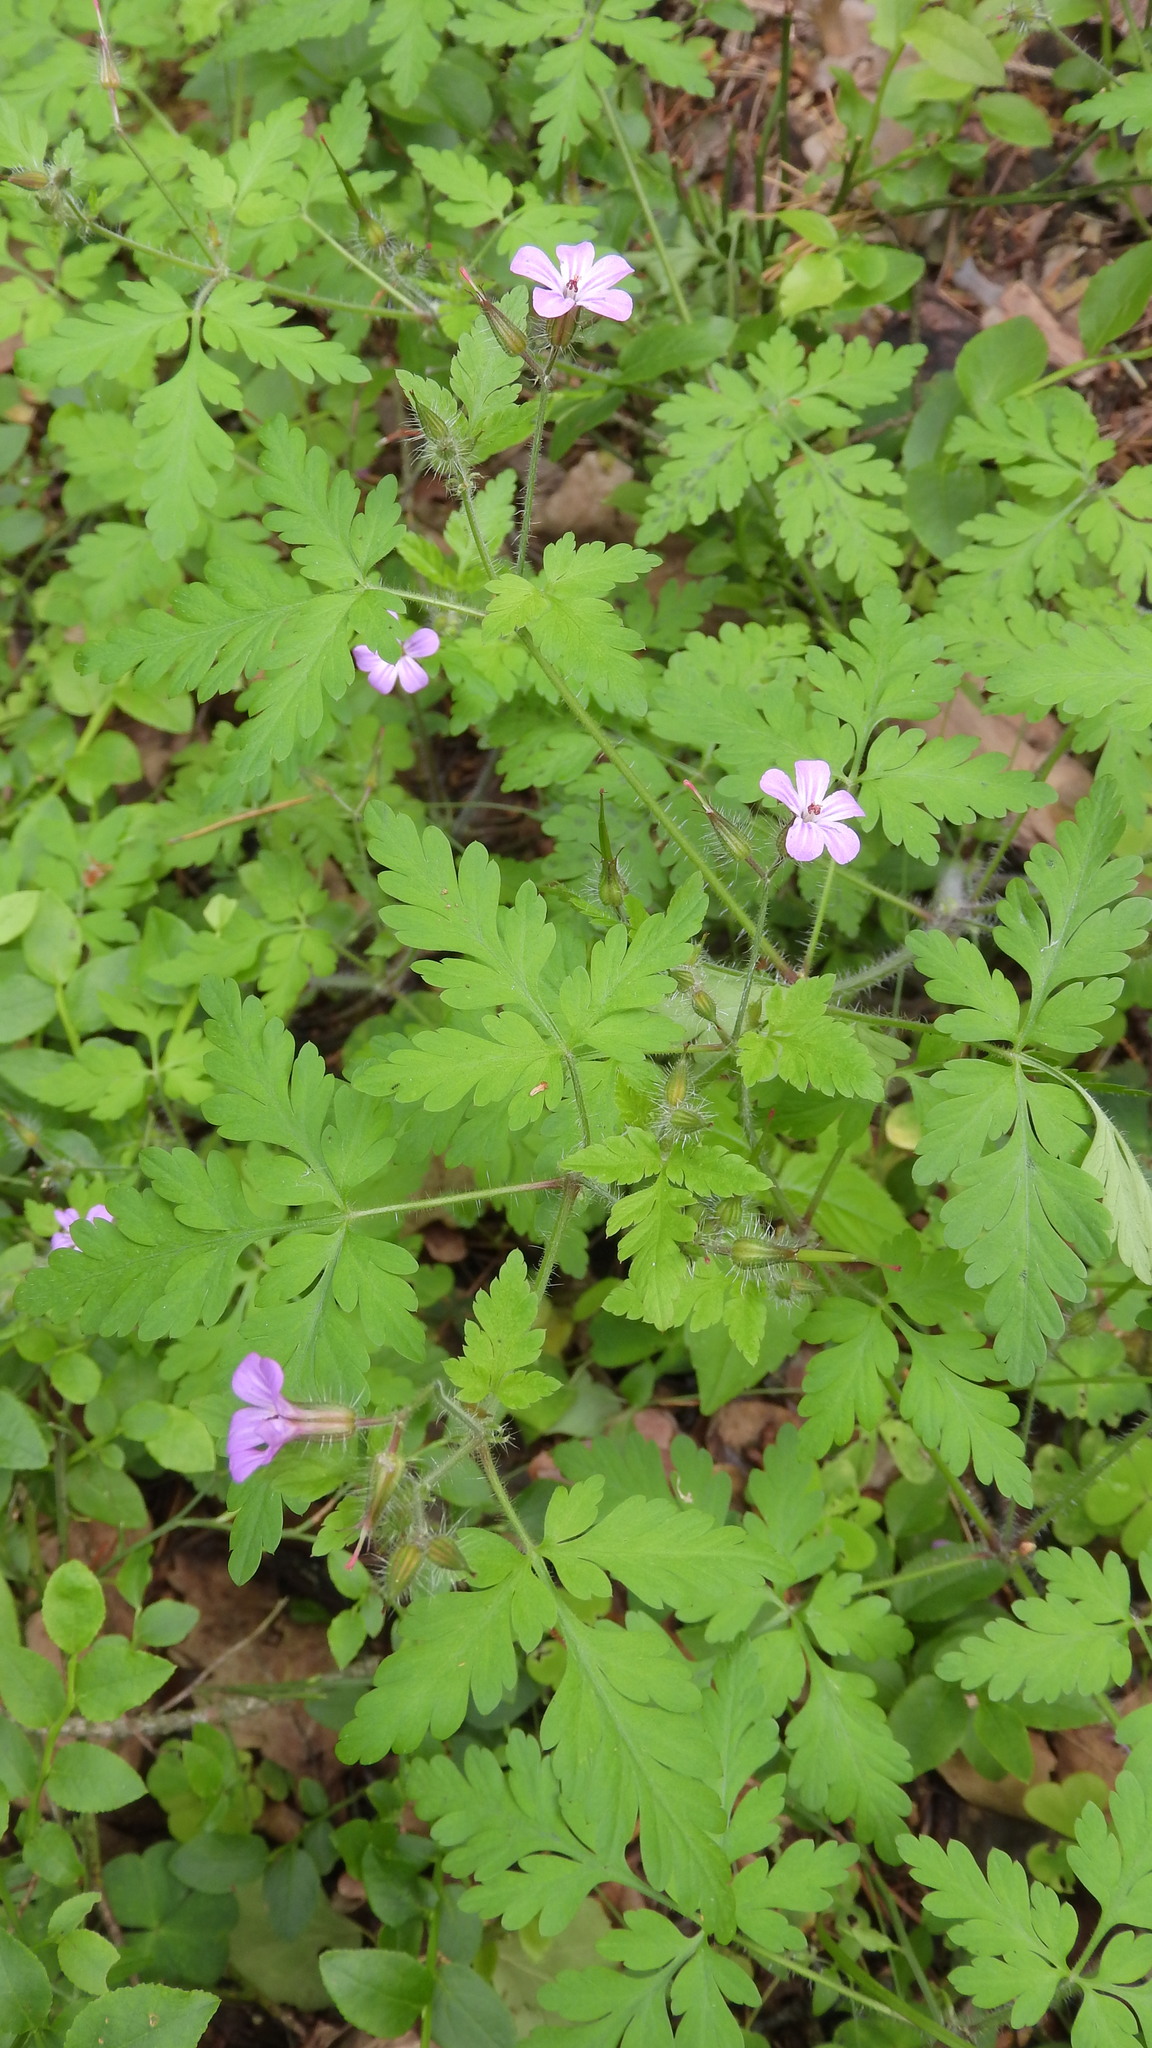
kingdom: Plantae
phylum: Tracheophyta
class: Magnoliopsida
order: Geraniales
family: Geraniaceae
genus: Geranium
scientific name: Geranium robertianum
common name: Herb-robert
